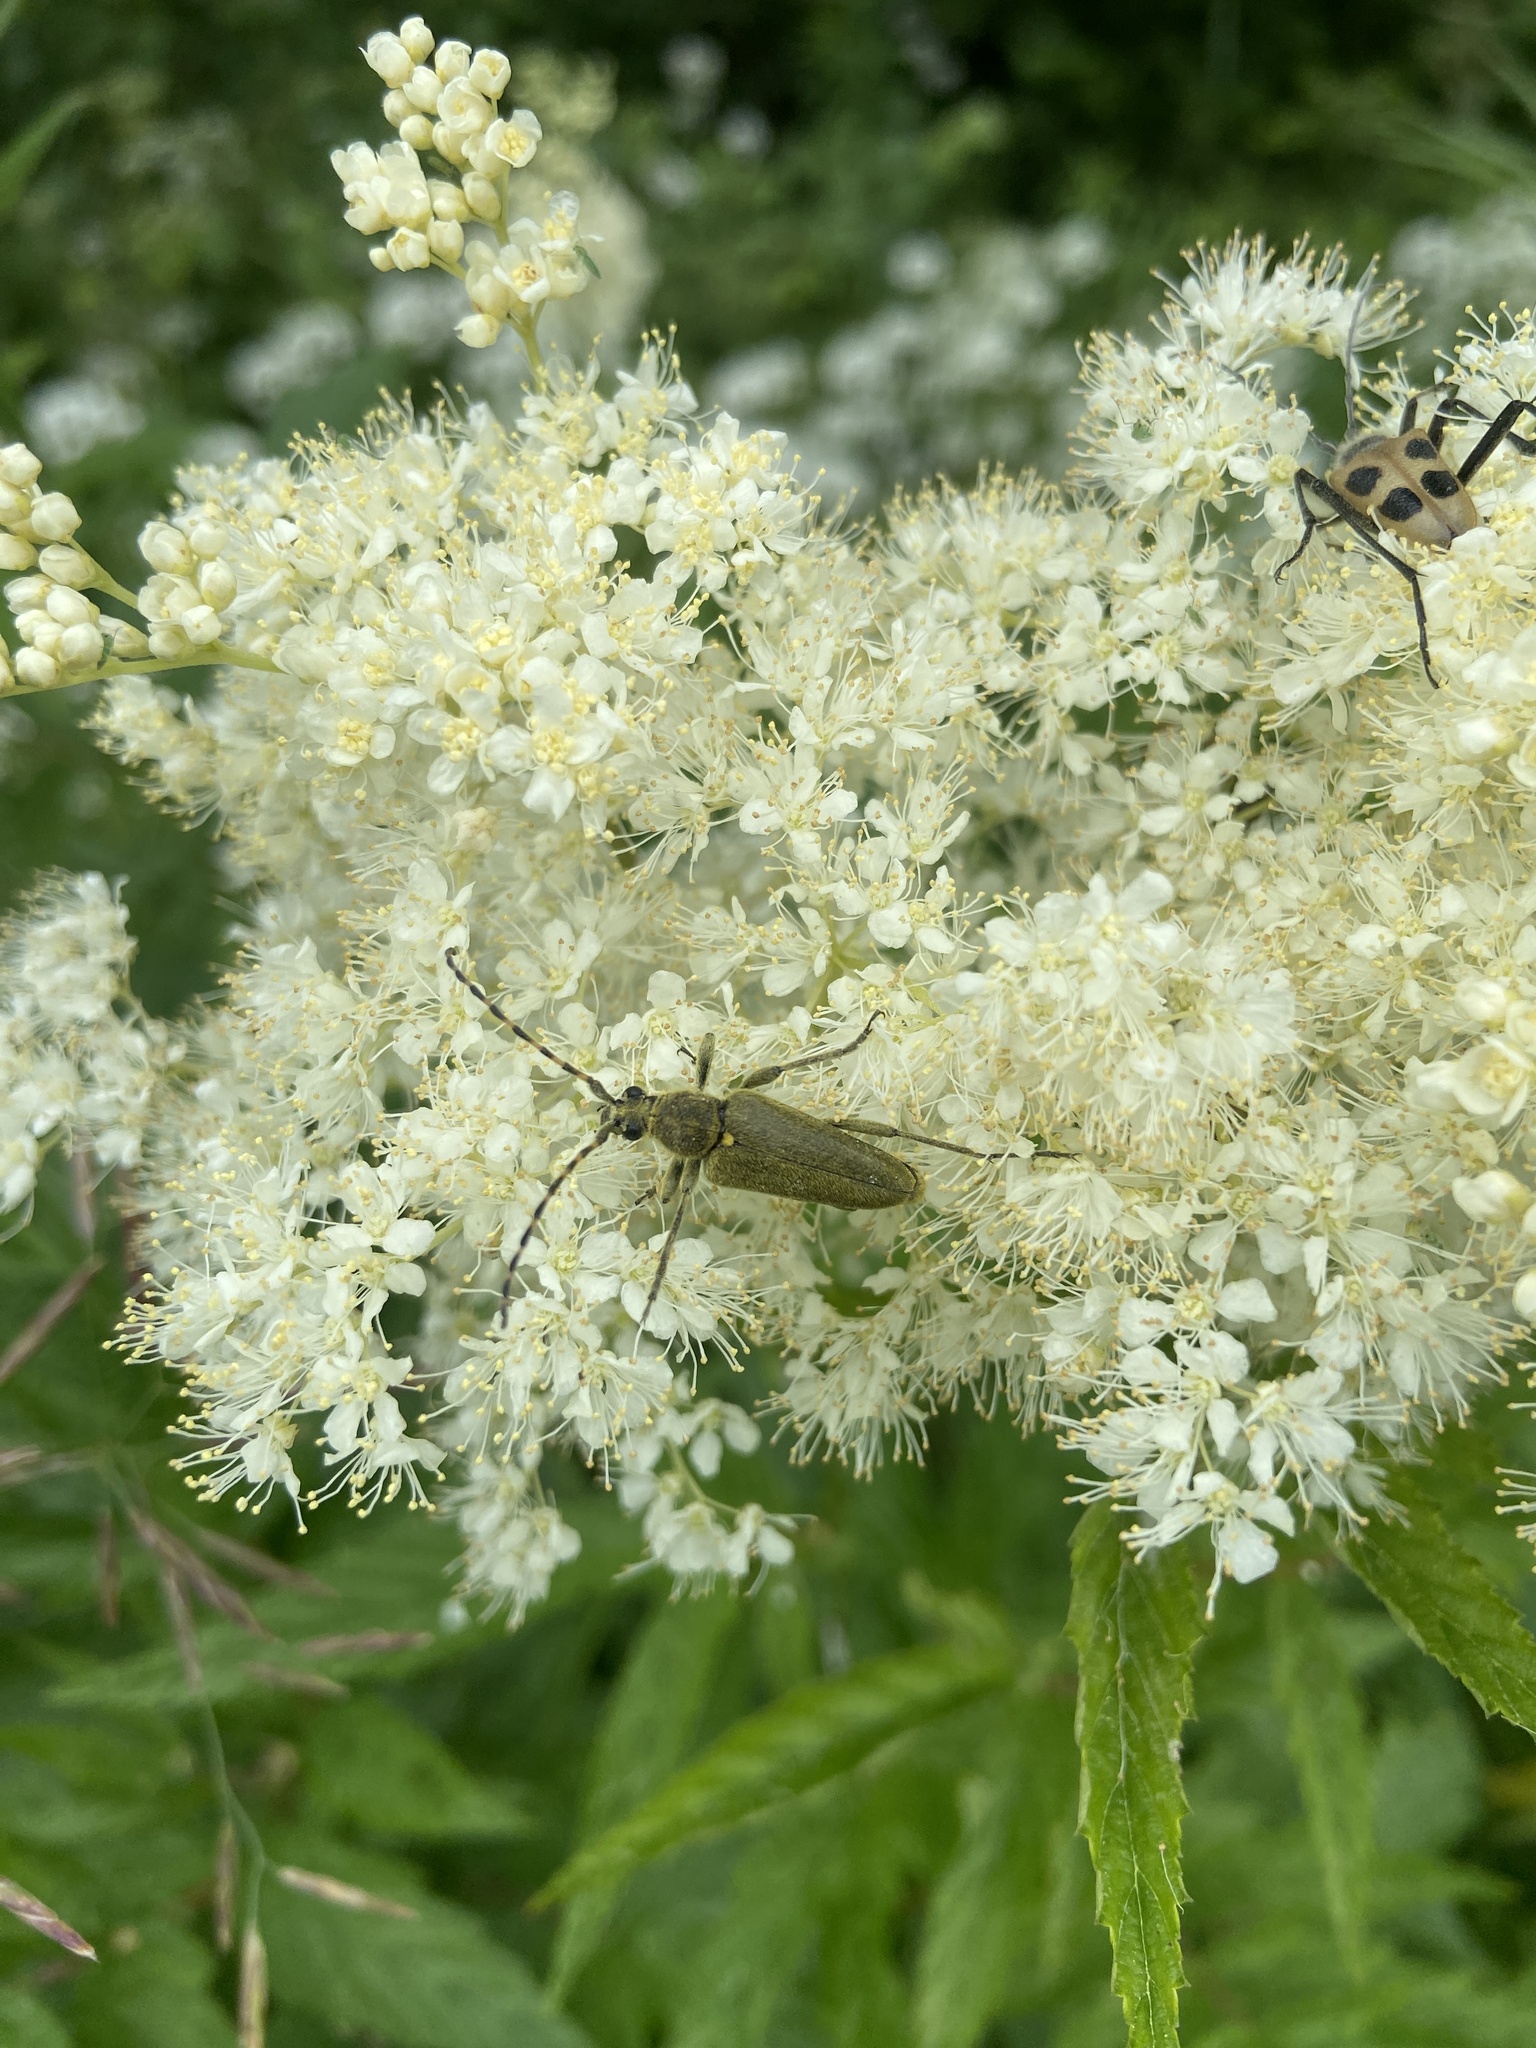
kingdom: Animalia
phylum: Arthropoda
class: Insecta
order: Coleoptera
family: Cerambycidae
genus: Lepturobosca
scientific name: Lepturobosca virens
